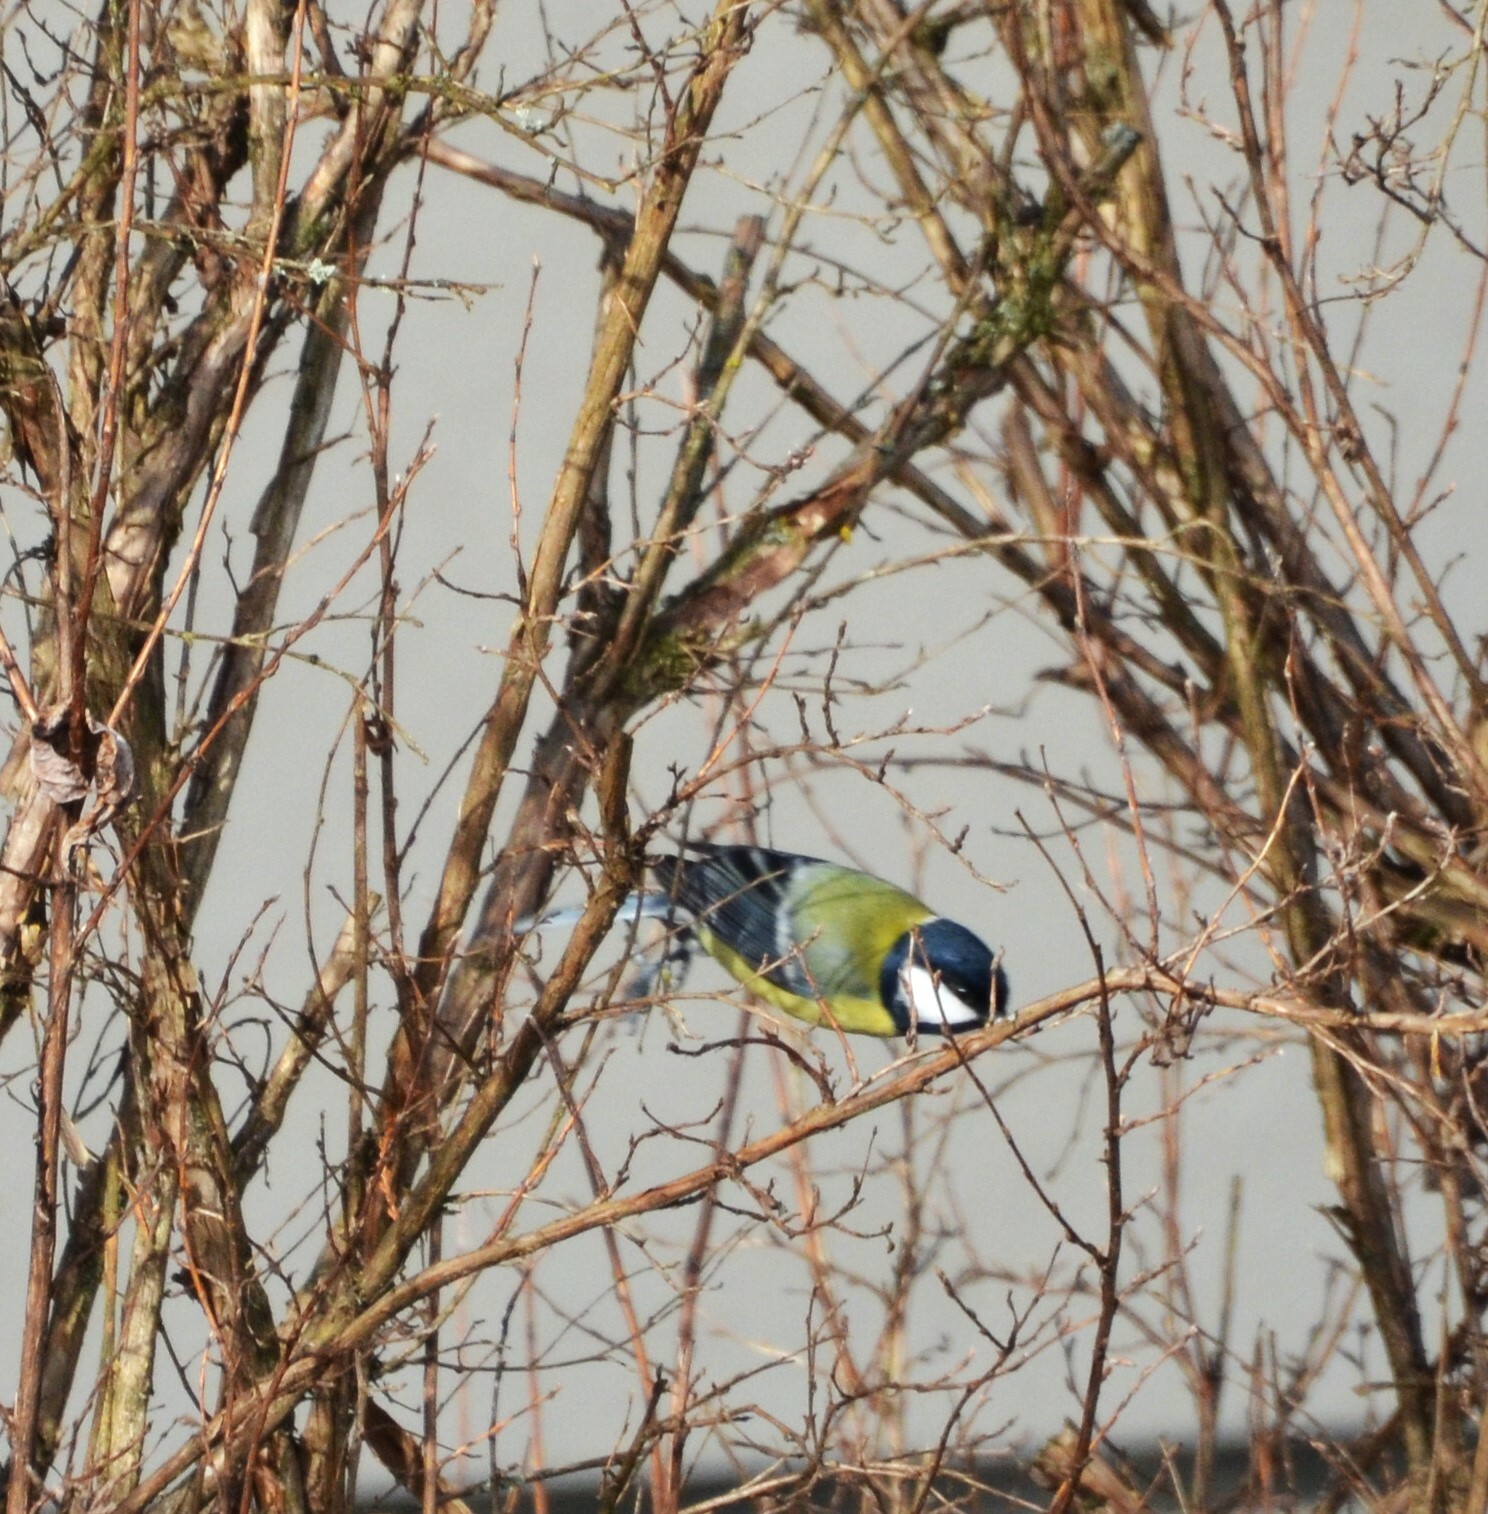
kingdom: Animalia
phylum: Chordata
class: Aves
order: Passeriformes
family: Paridae
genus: Parus
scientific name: Parus major
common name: Great tit
